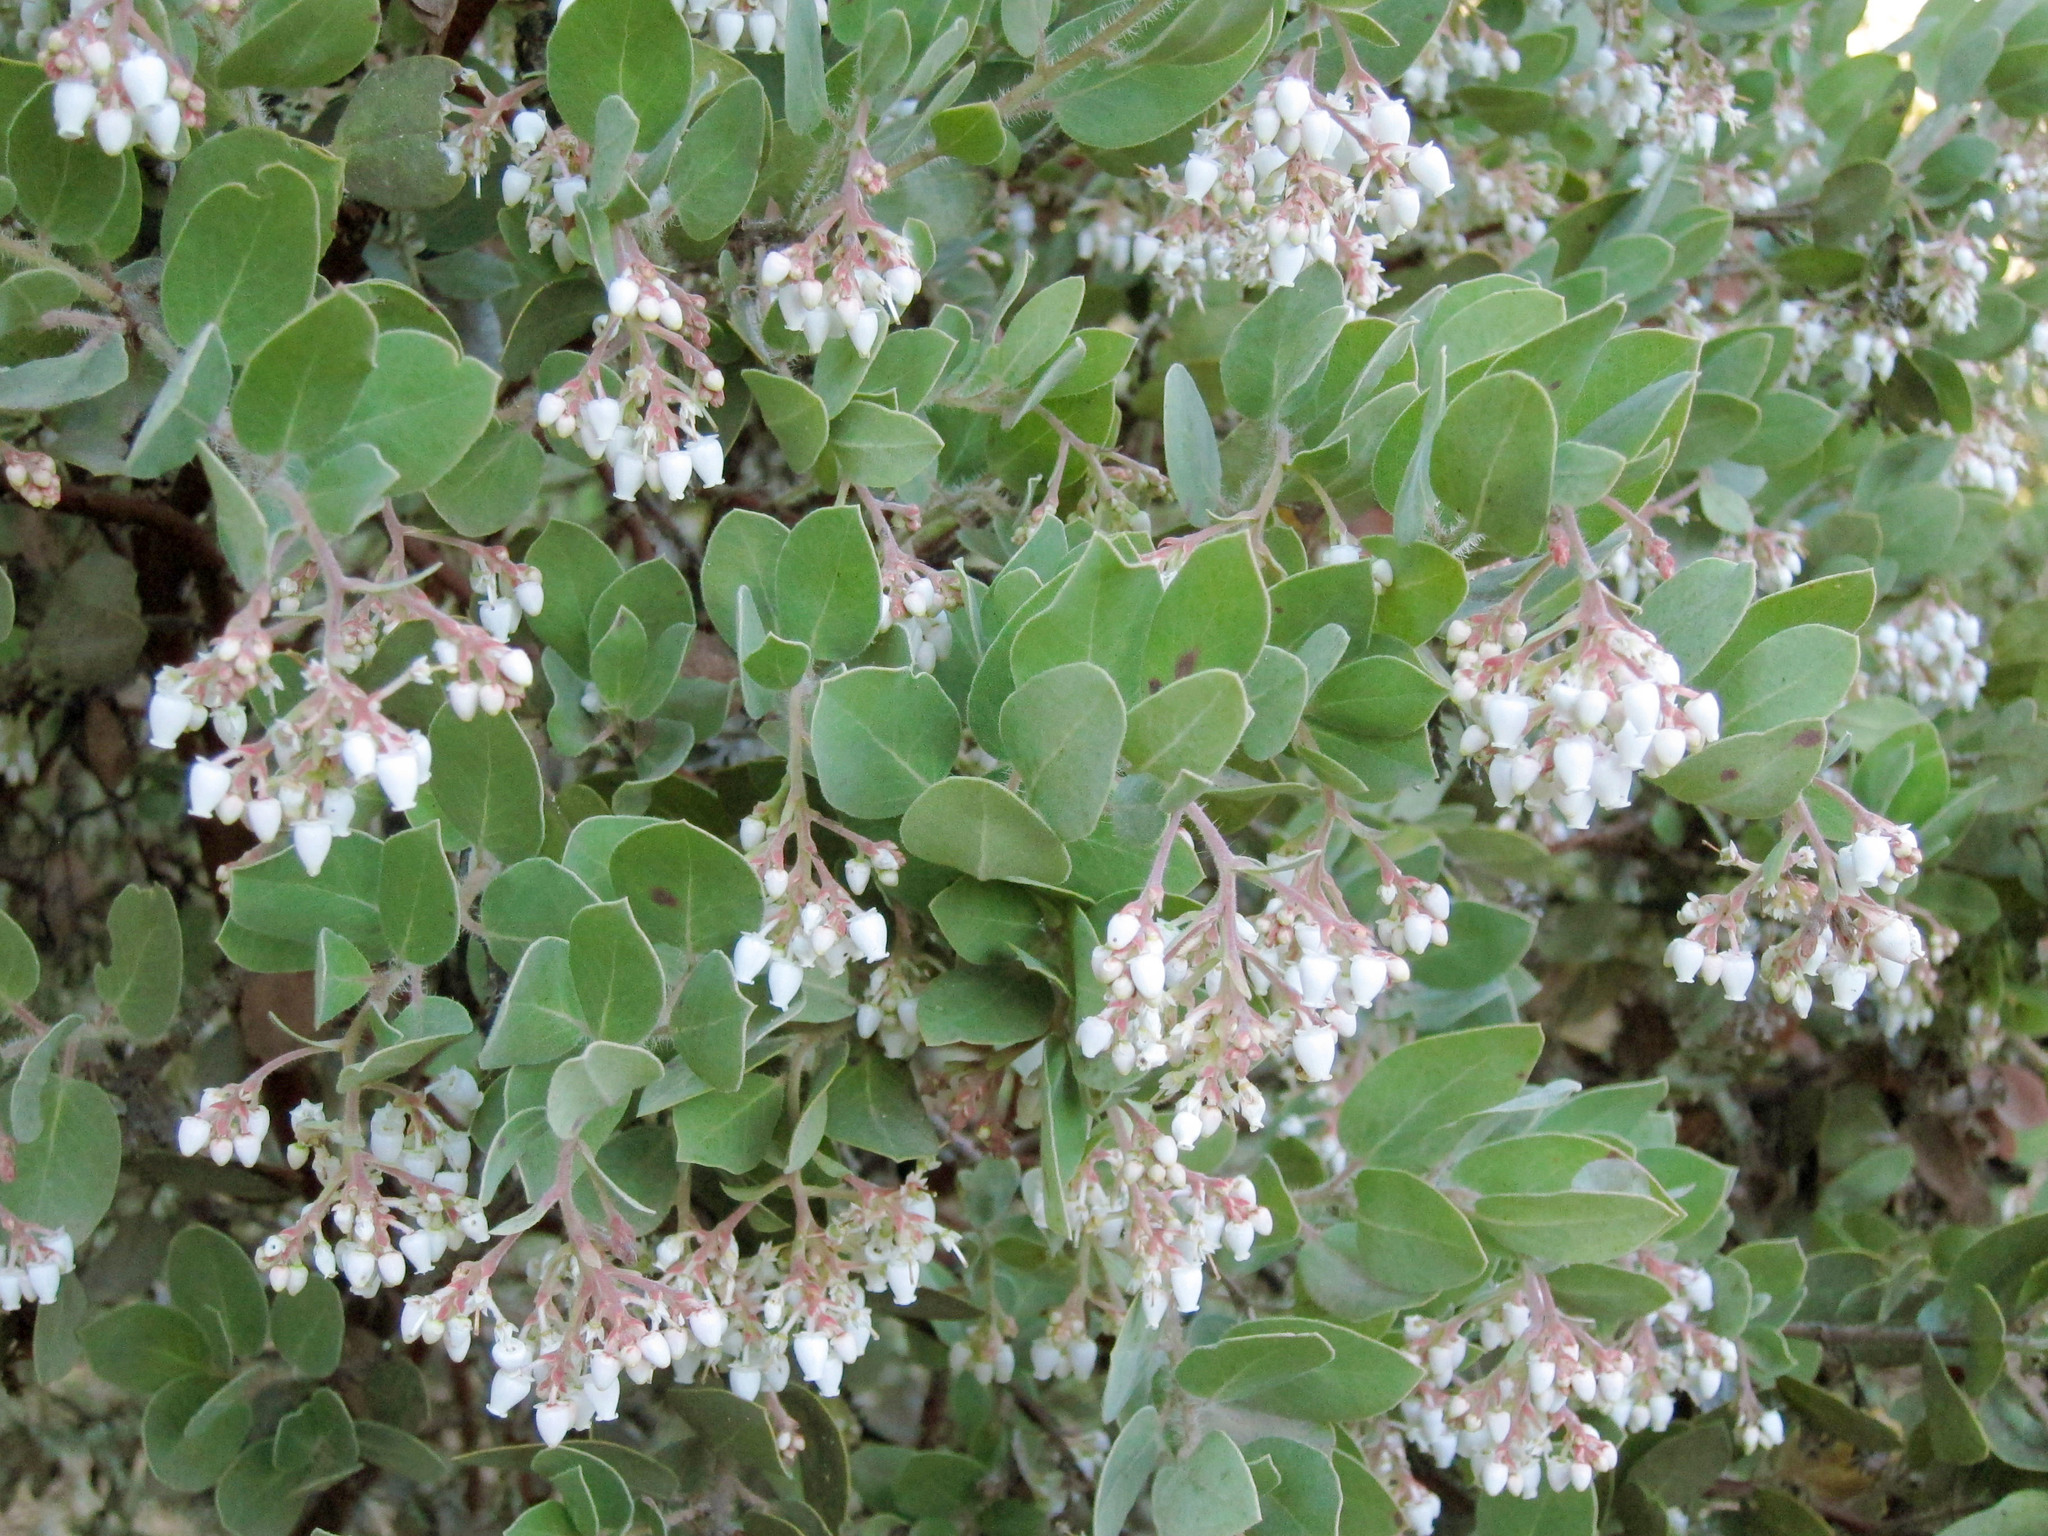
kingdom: Plantae
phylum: Tracheophyta
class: Magnoliopsida
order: Ericales
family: Ericaceae
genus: Arctostaphylos
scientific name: Arctostaphylos crustacea
